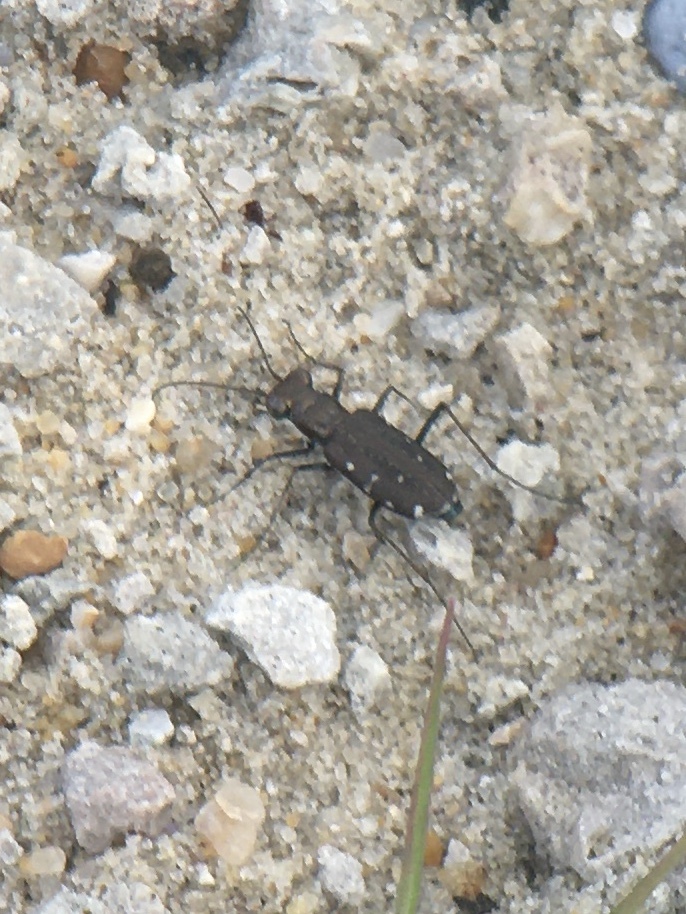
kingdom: Animalia
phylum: Arthropoda
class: Insecta
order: Coleoptera
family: Carabidae
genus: Cicindela
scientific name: Cicindela punctulata
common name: Punctured tiger beetle
